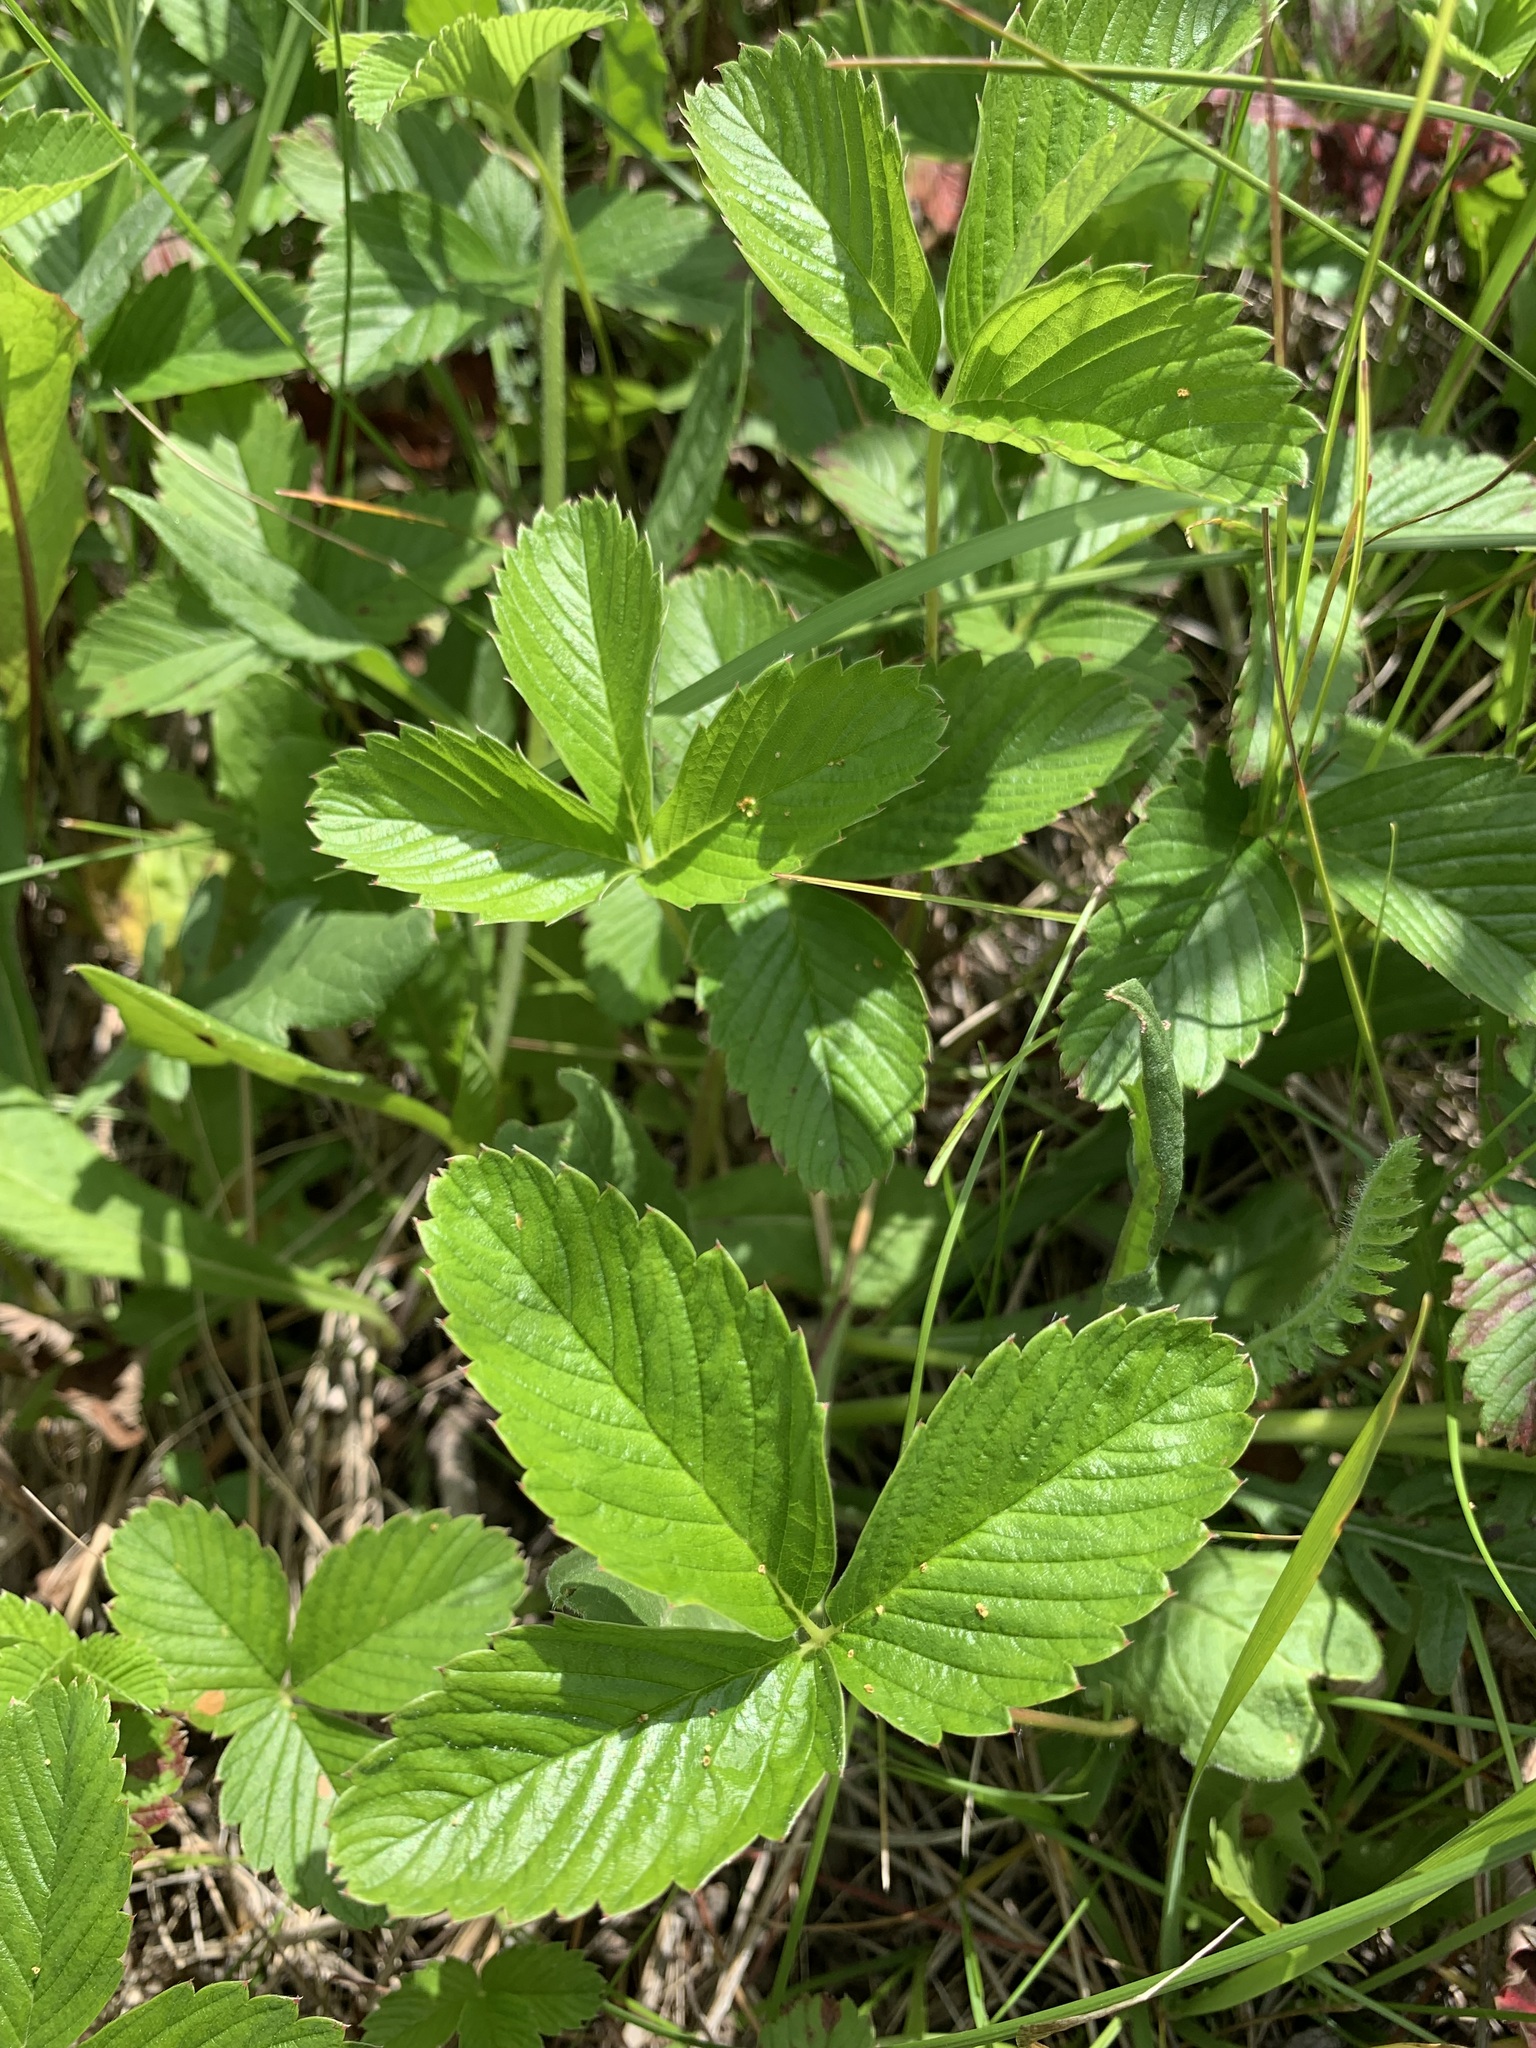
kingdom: Plantae
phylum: Tracheophyta
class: Magnoliopsida
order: Rosales
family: Rosaceae
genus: Fragaria
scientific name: Fragaria viridis
